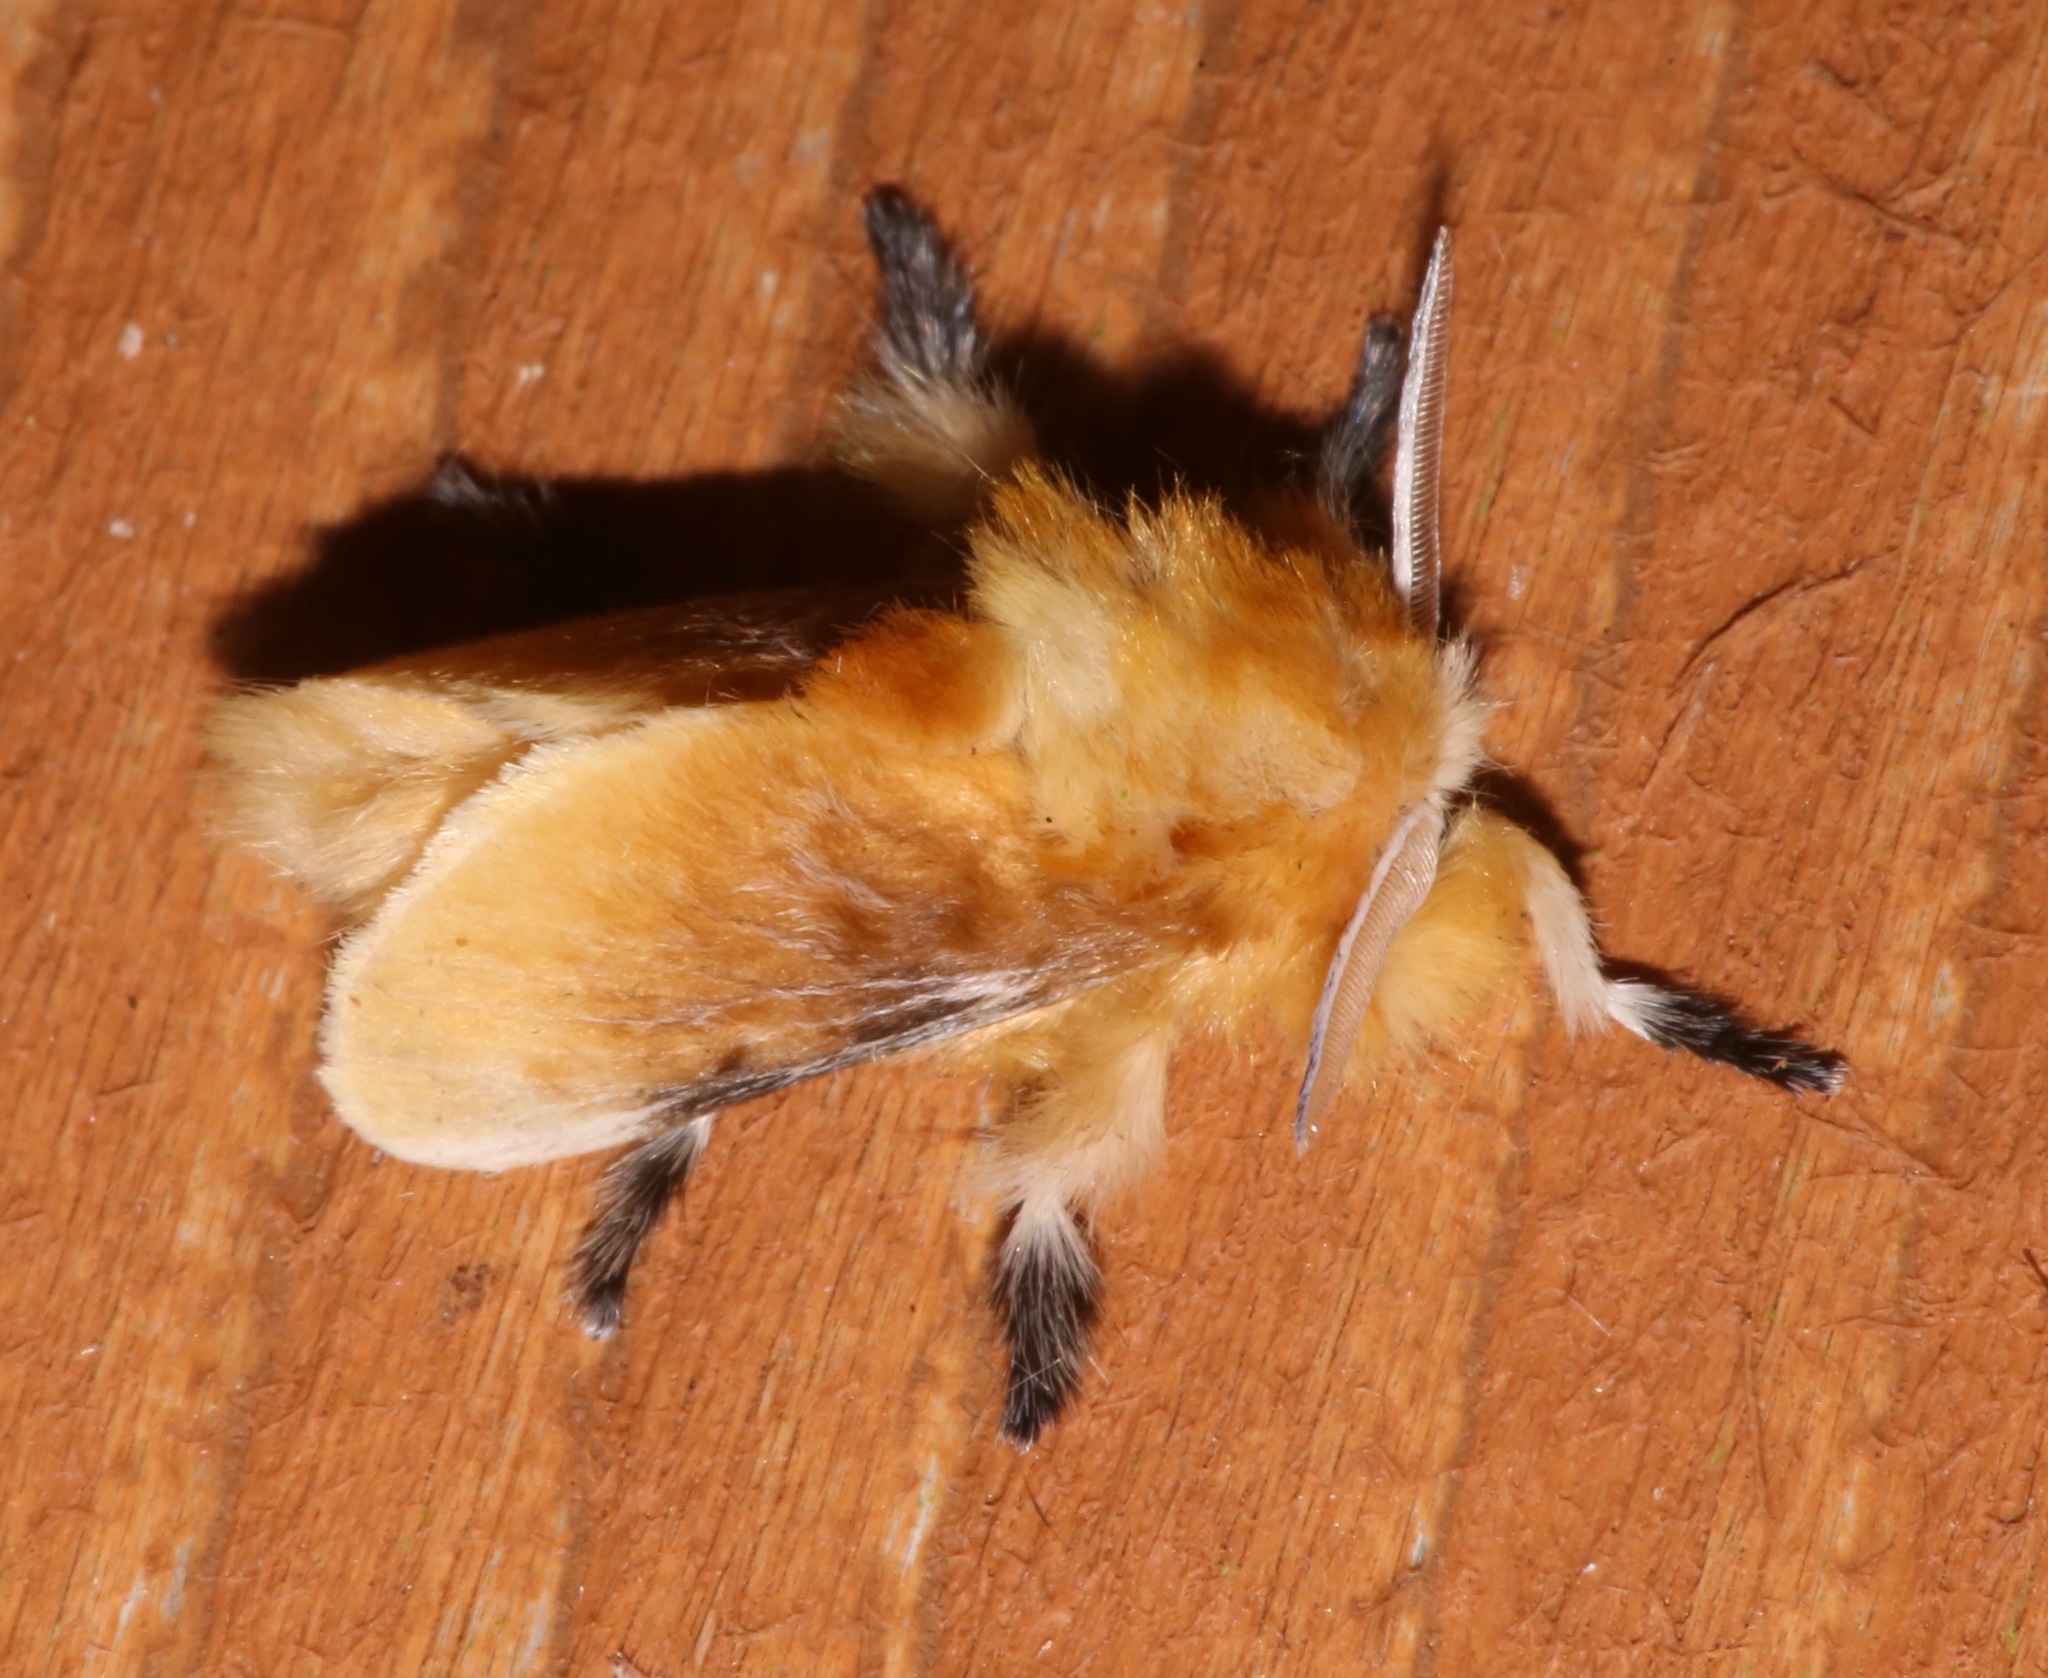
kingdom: Animalia
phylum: Arthropoda
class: Insecta
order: Lepidoptera
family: Megalopygidae
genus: Megalopyge
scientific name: Megalopyge opercularis
